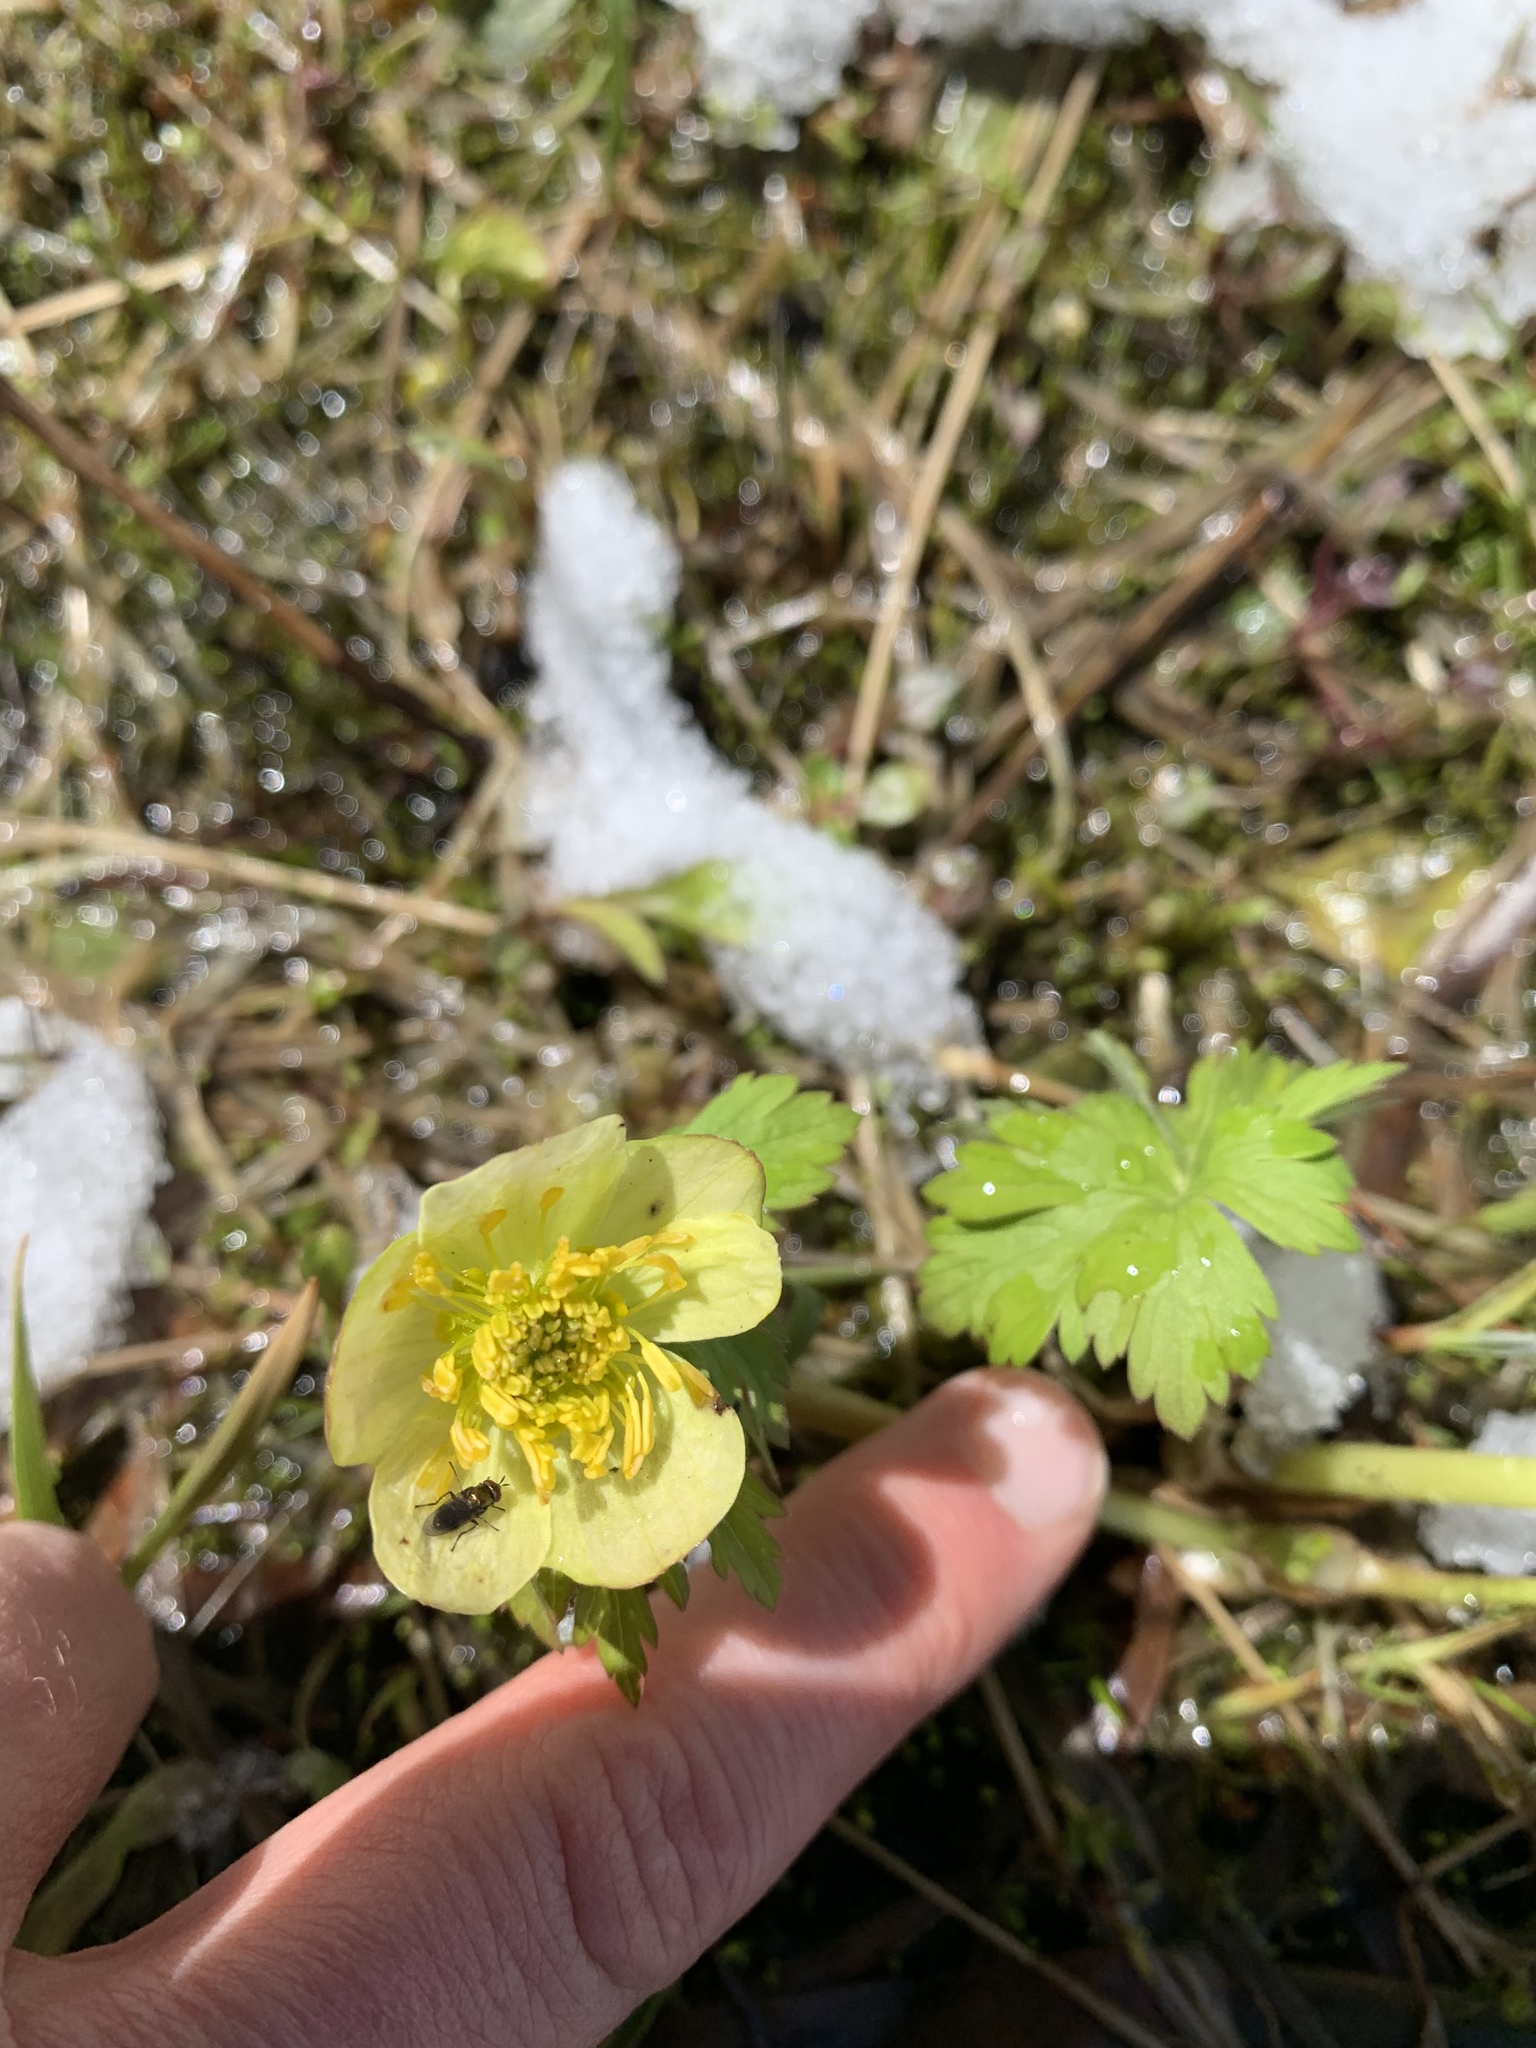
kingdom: Plantae
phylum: Tracheophyta
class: Magnoliopsida
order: Ranunculales
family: Ranunculaceae
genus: Trollius
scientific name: Trollius laxus
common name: American globeflower
